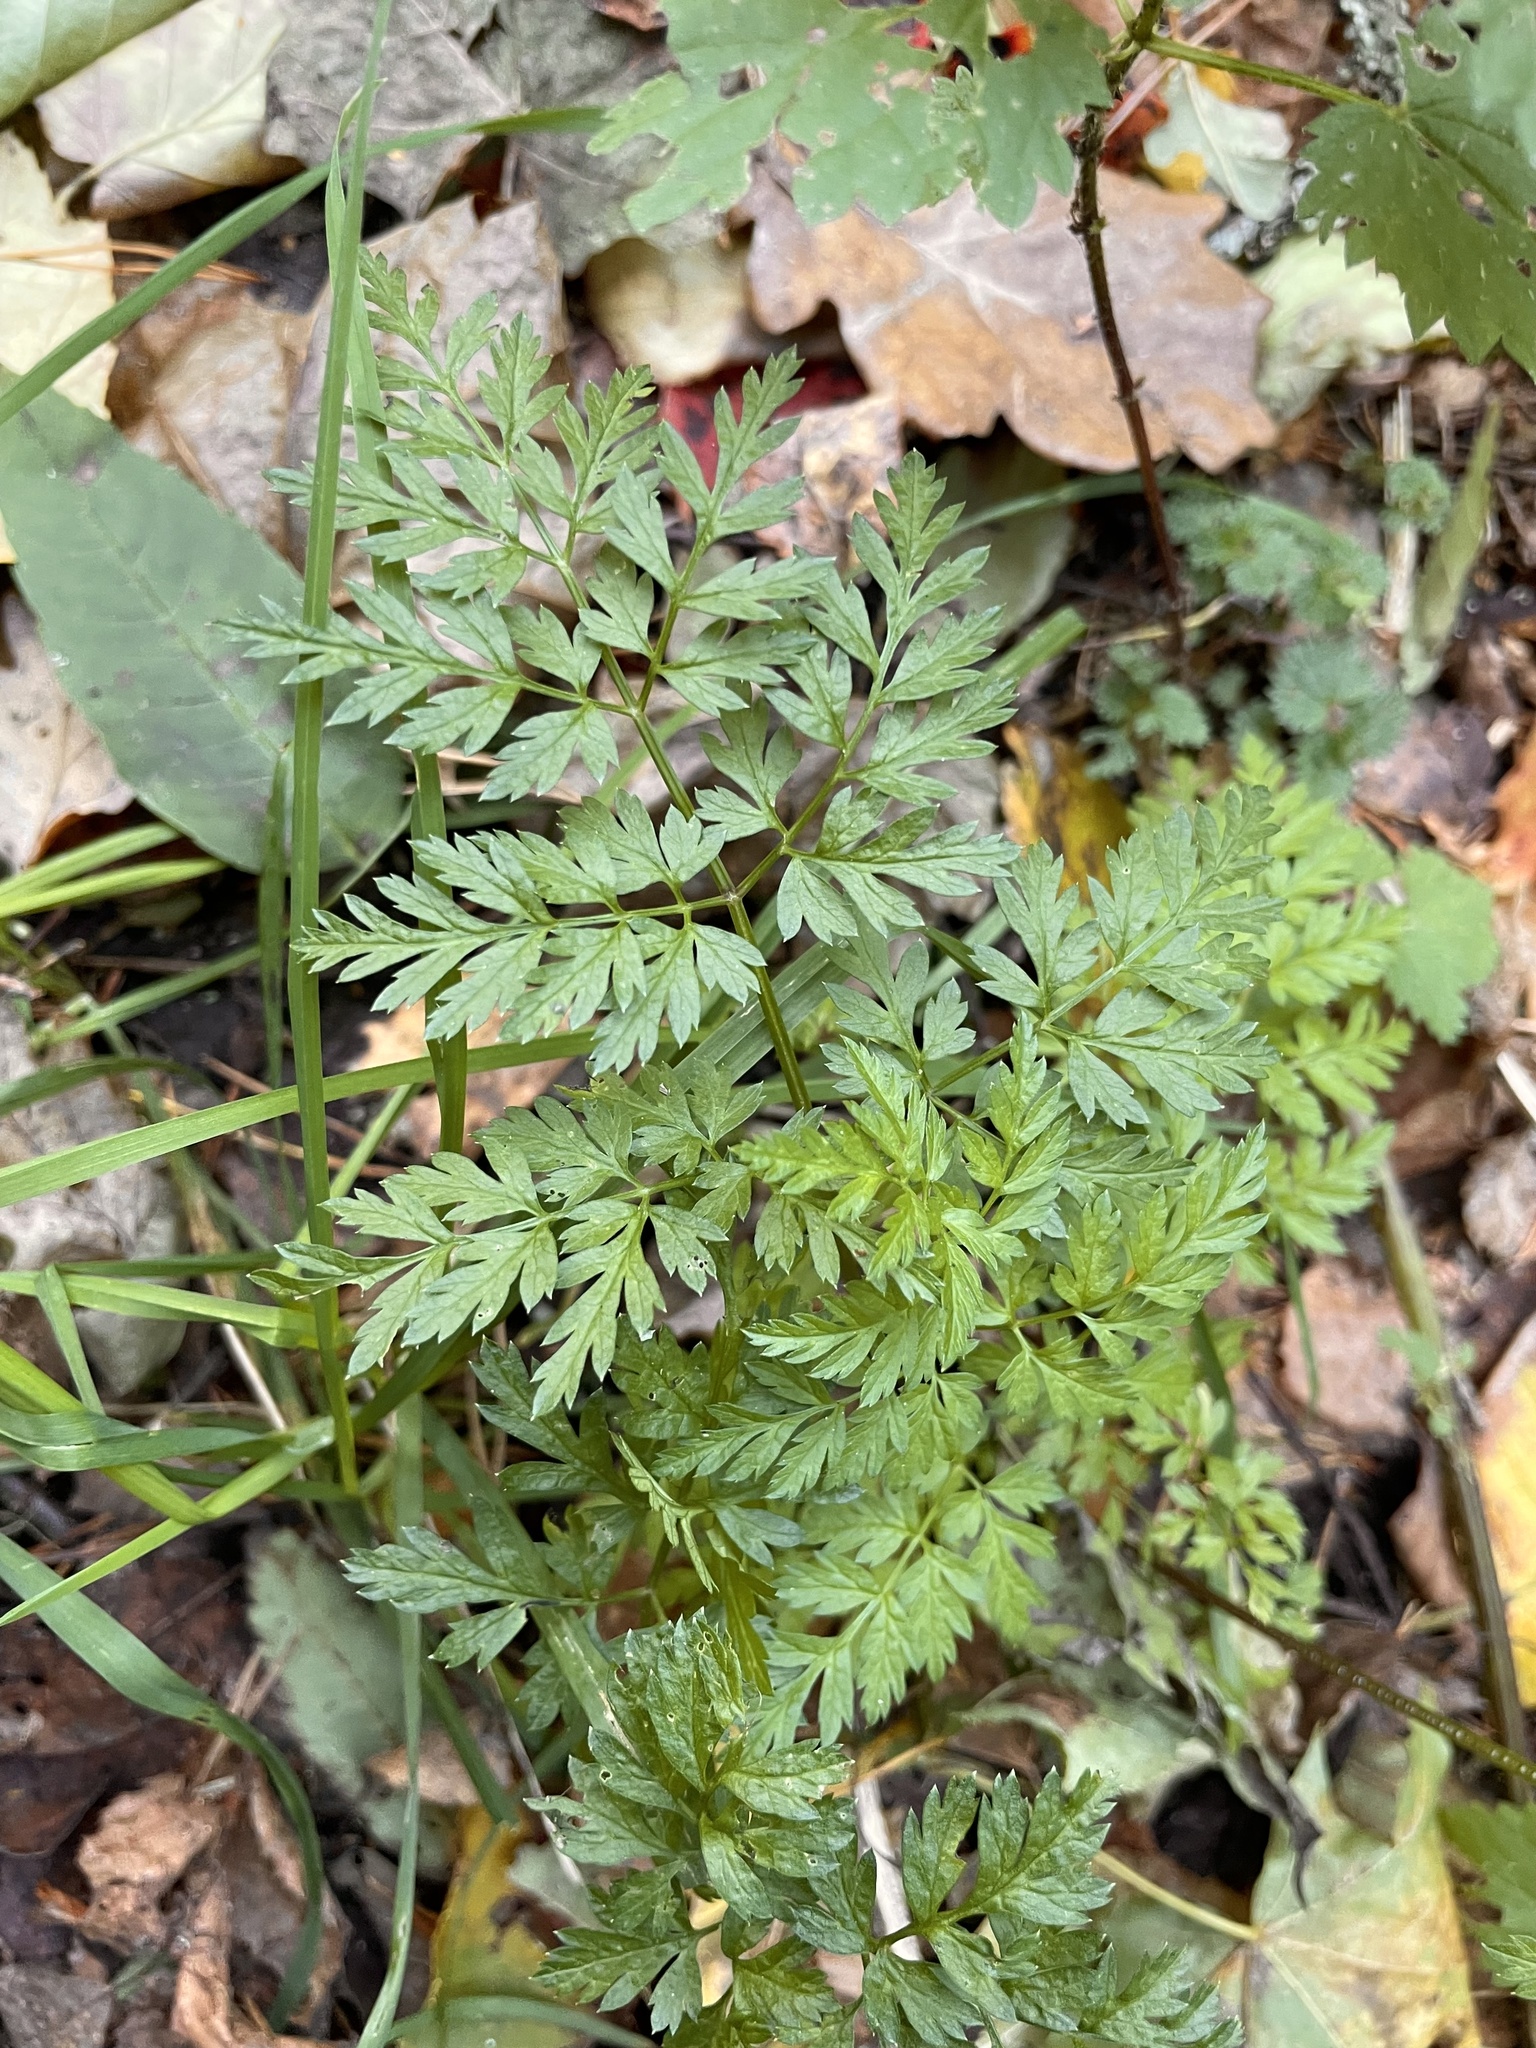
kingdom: Plantae
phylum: Tracheophyta
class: Magnoliopsida
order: Apiales
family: Apiaceae
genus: Anthriscus
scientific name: Anthriscus sylvestris
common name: Cow parsley
